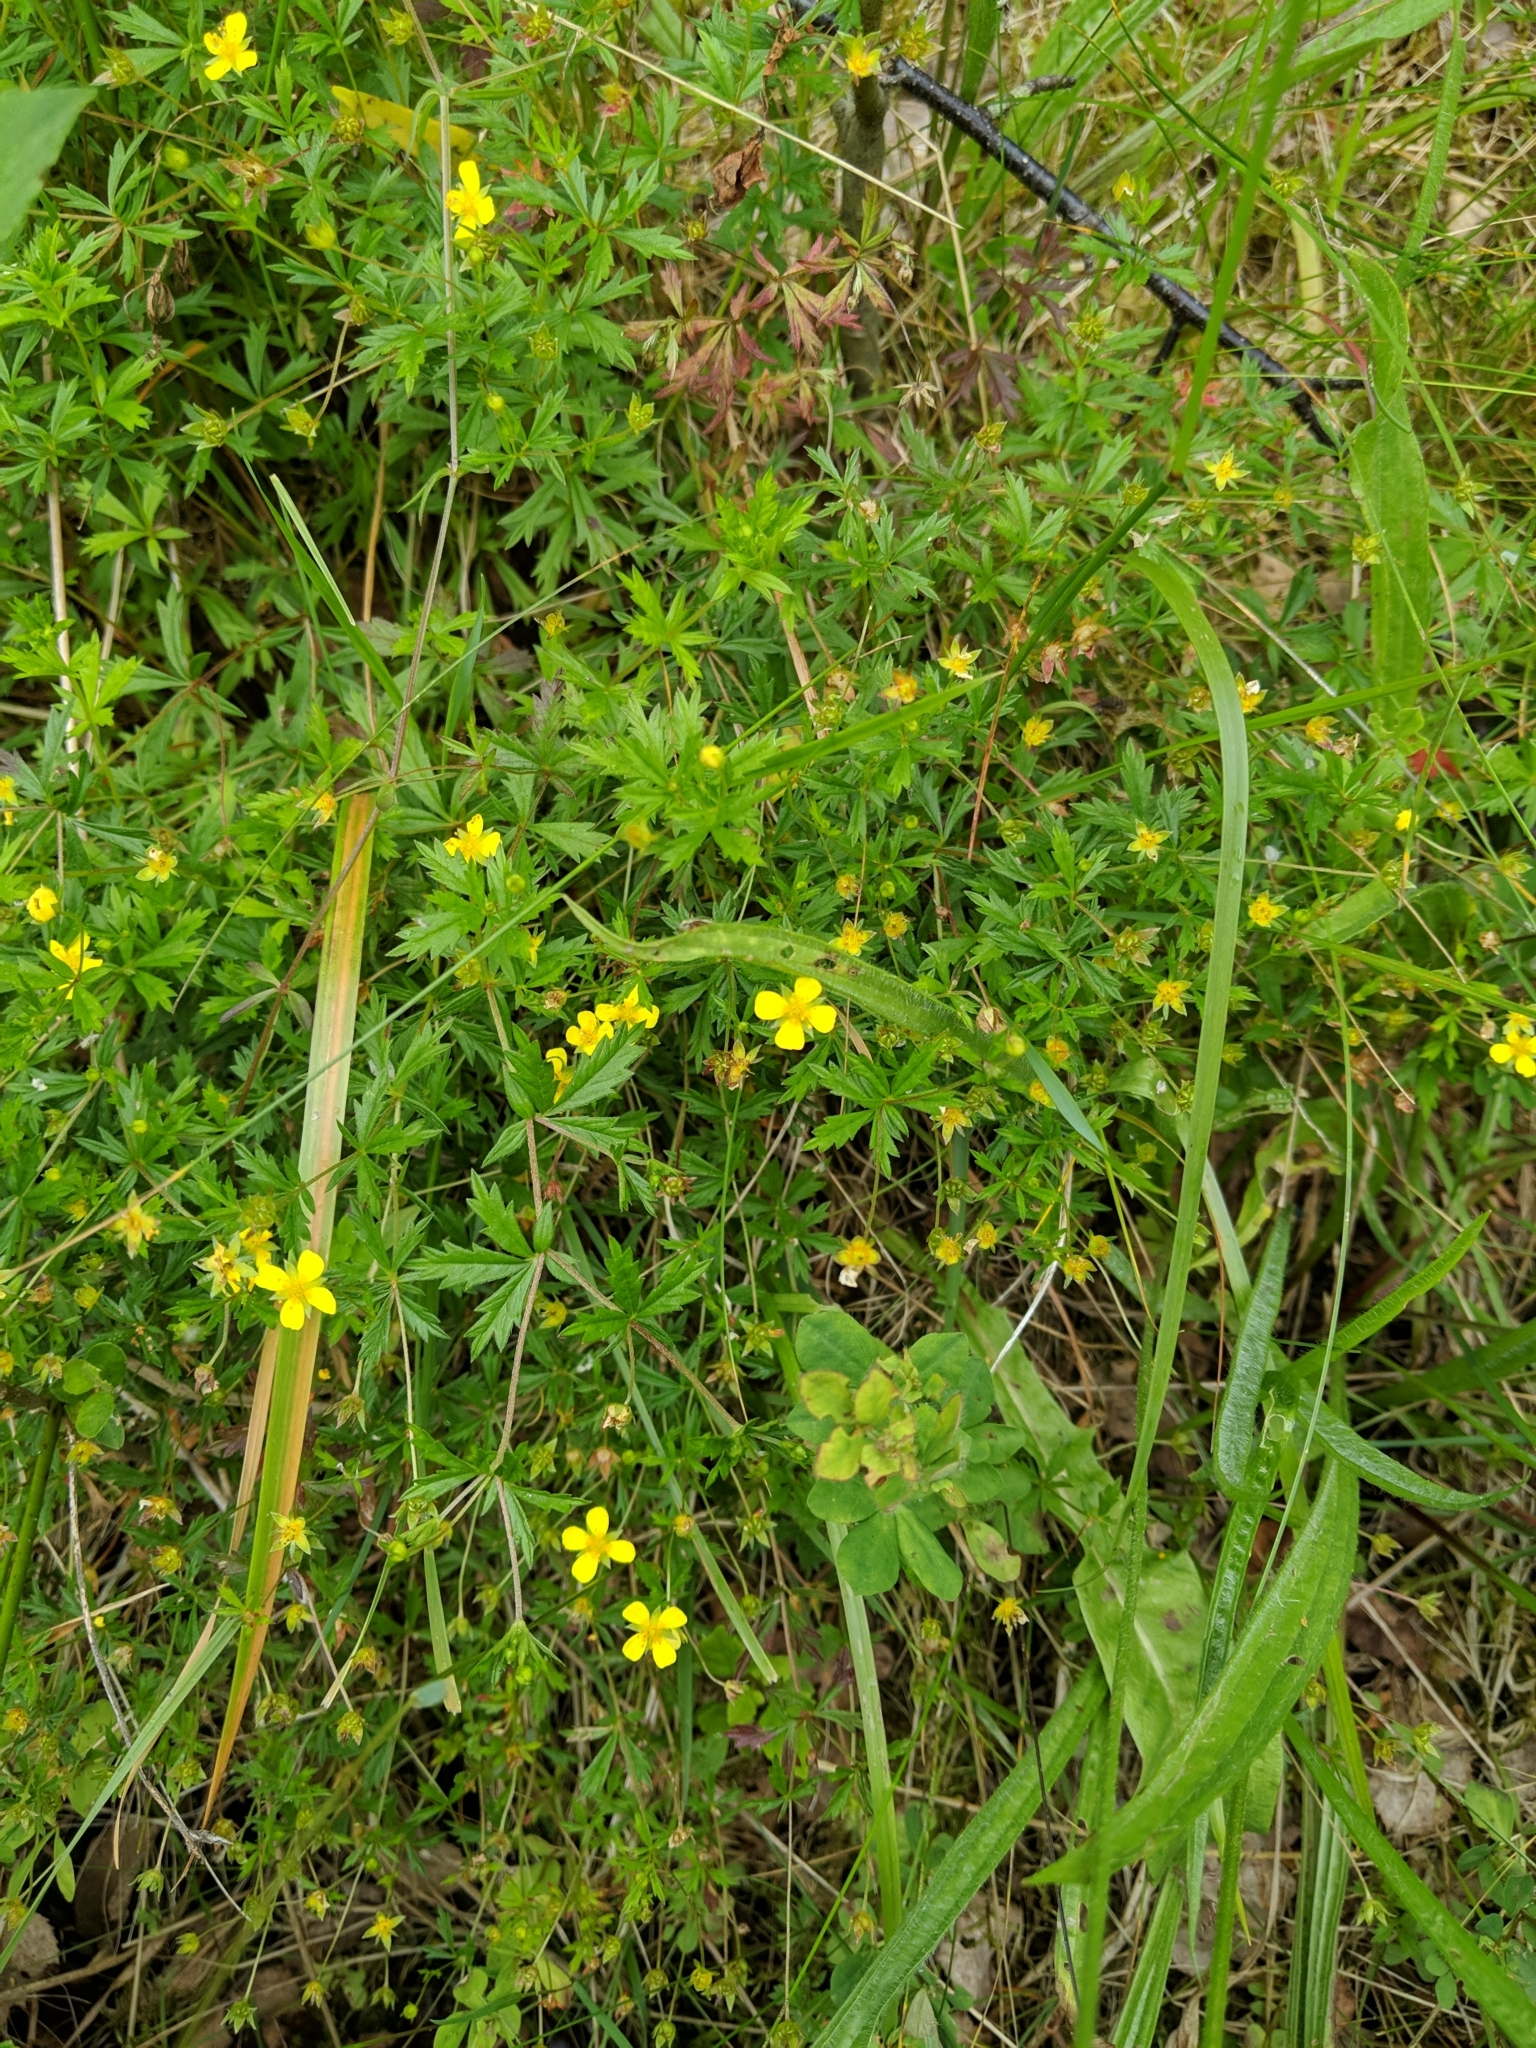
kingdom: Plantae
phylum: Tracheophyta
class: Magnoliopsida
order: Rosales
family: Rosaceae
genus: Potentilla
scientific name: Potentilla erecta
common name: Tormentil
